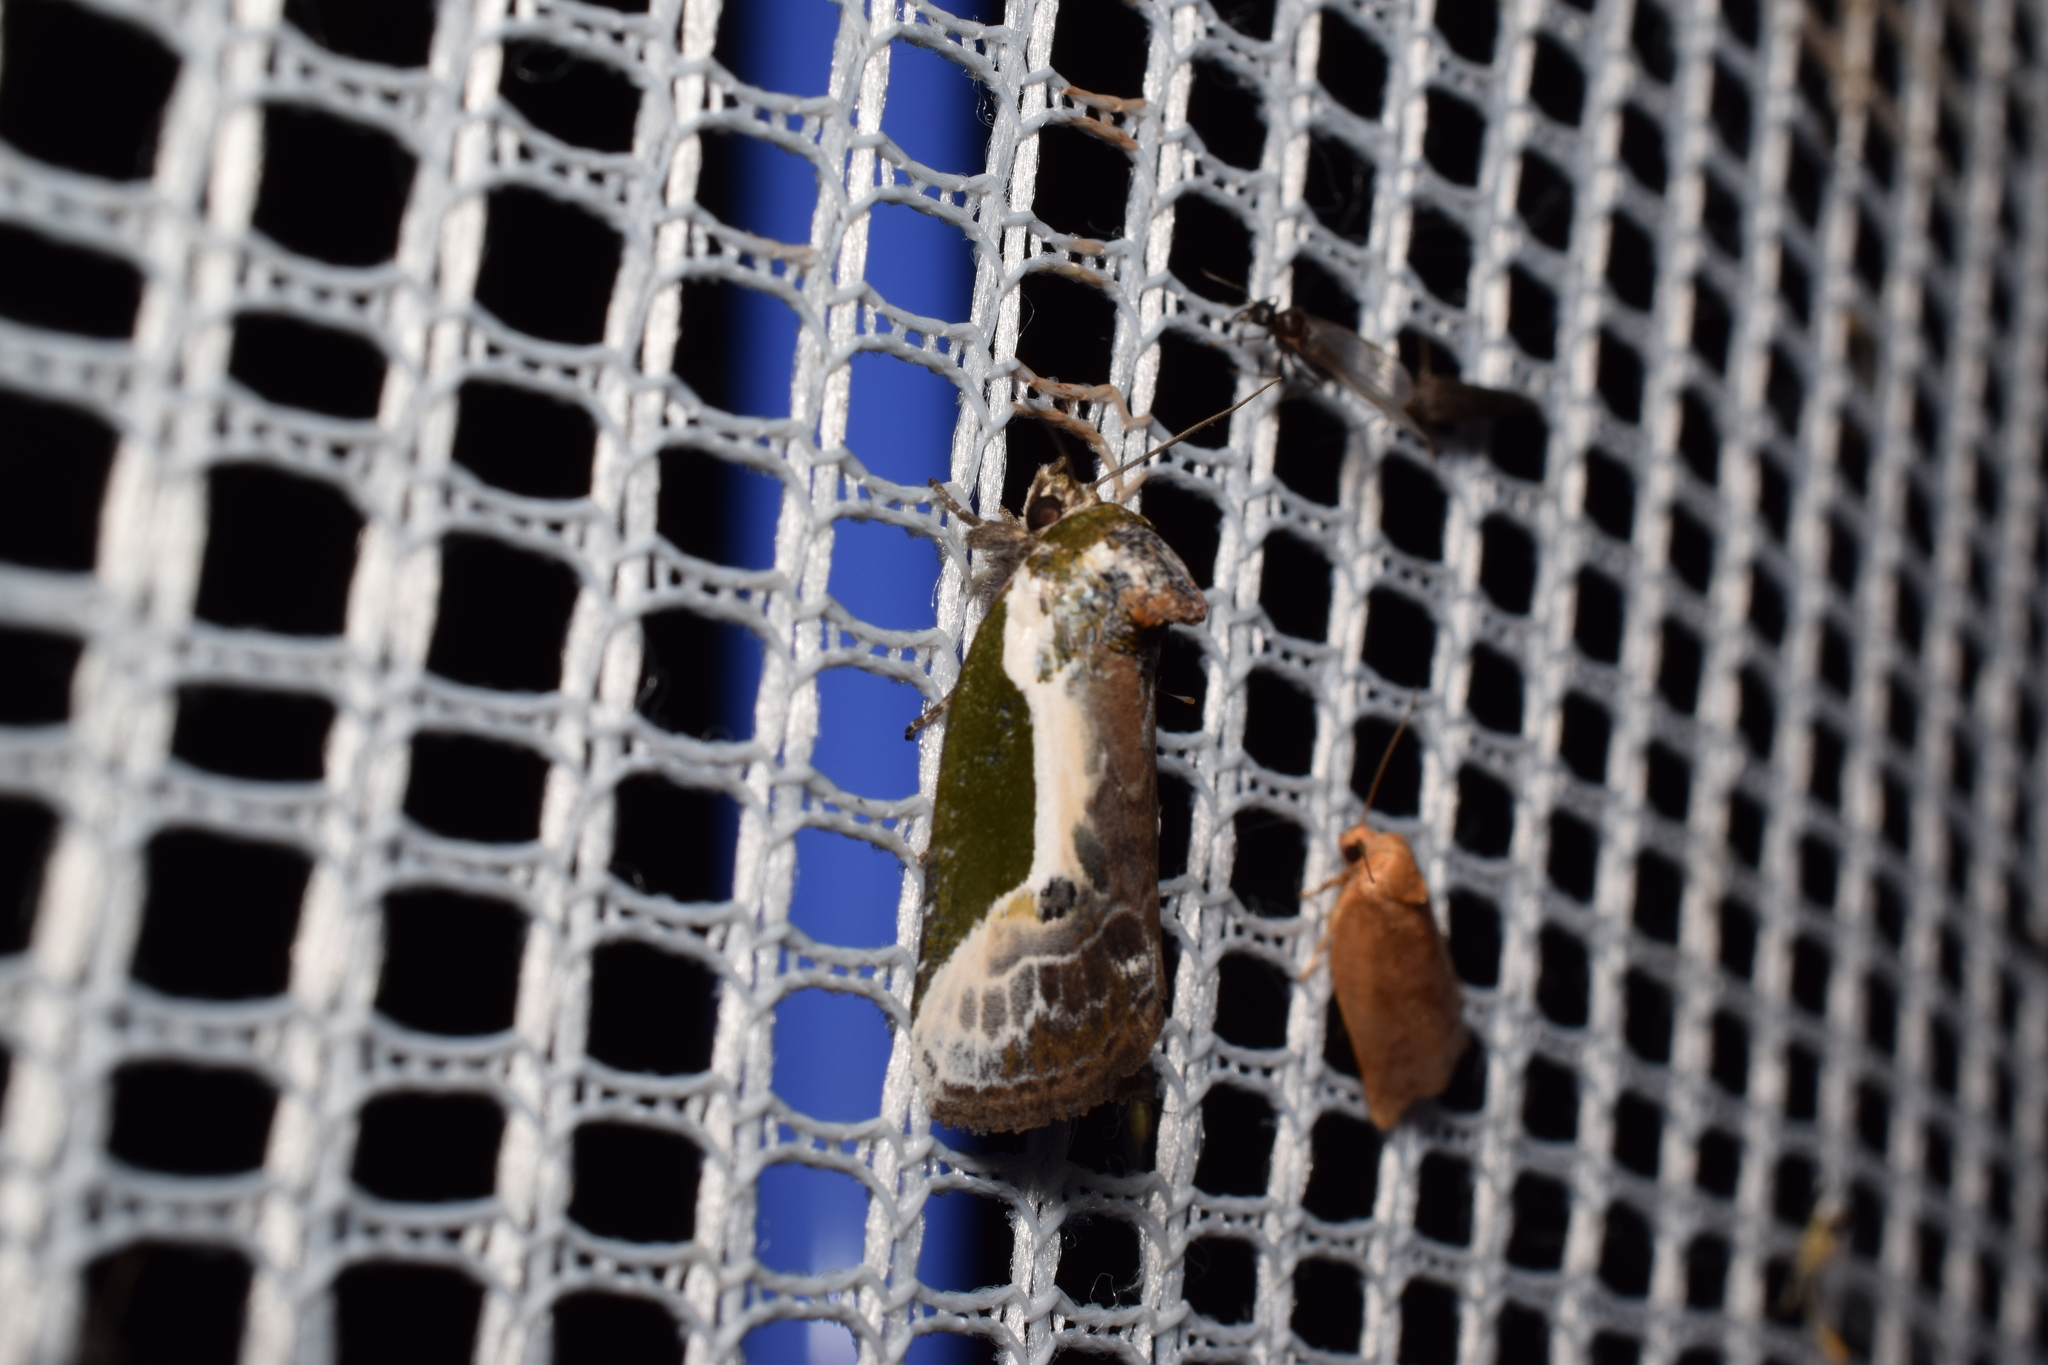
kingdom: Animalia
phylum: Arthropoda
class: Insecta
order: Lepidoptera
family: Noctuidae
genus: Stenoloba
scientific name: Stenoloba jankowskii
